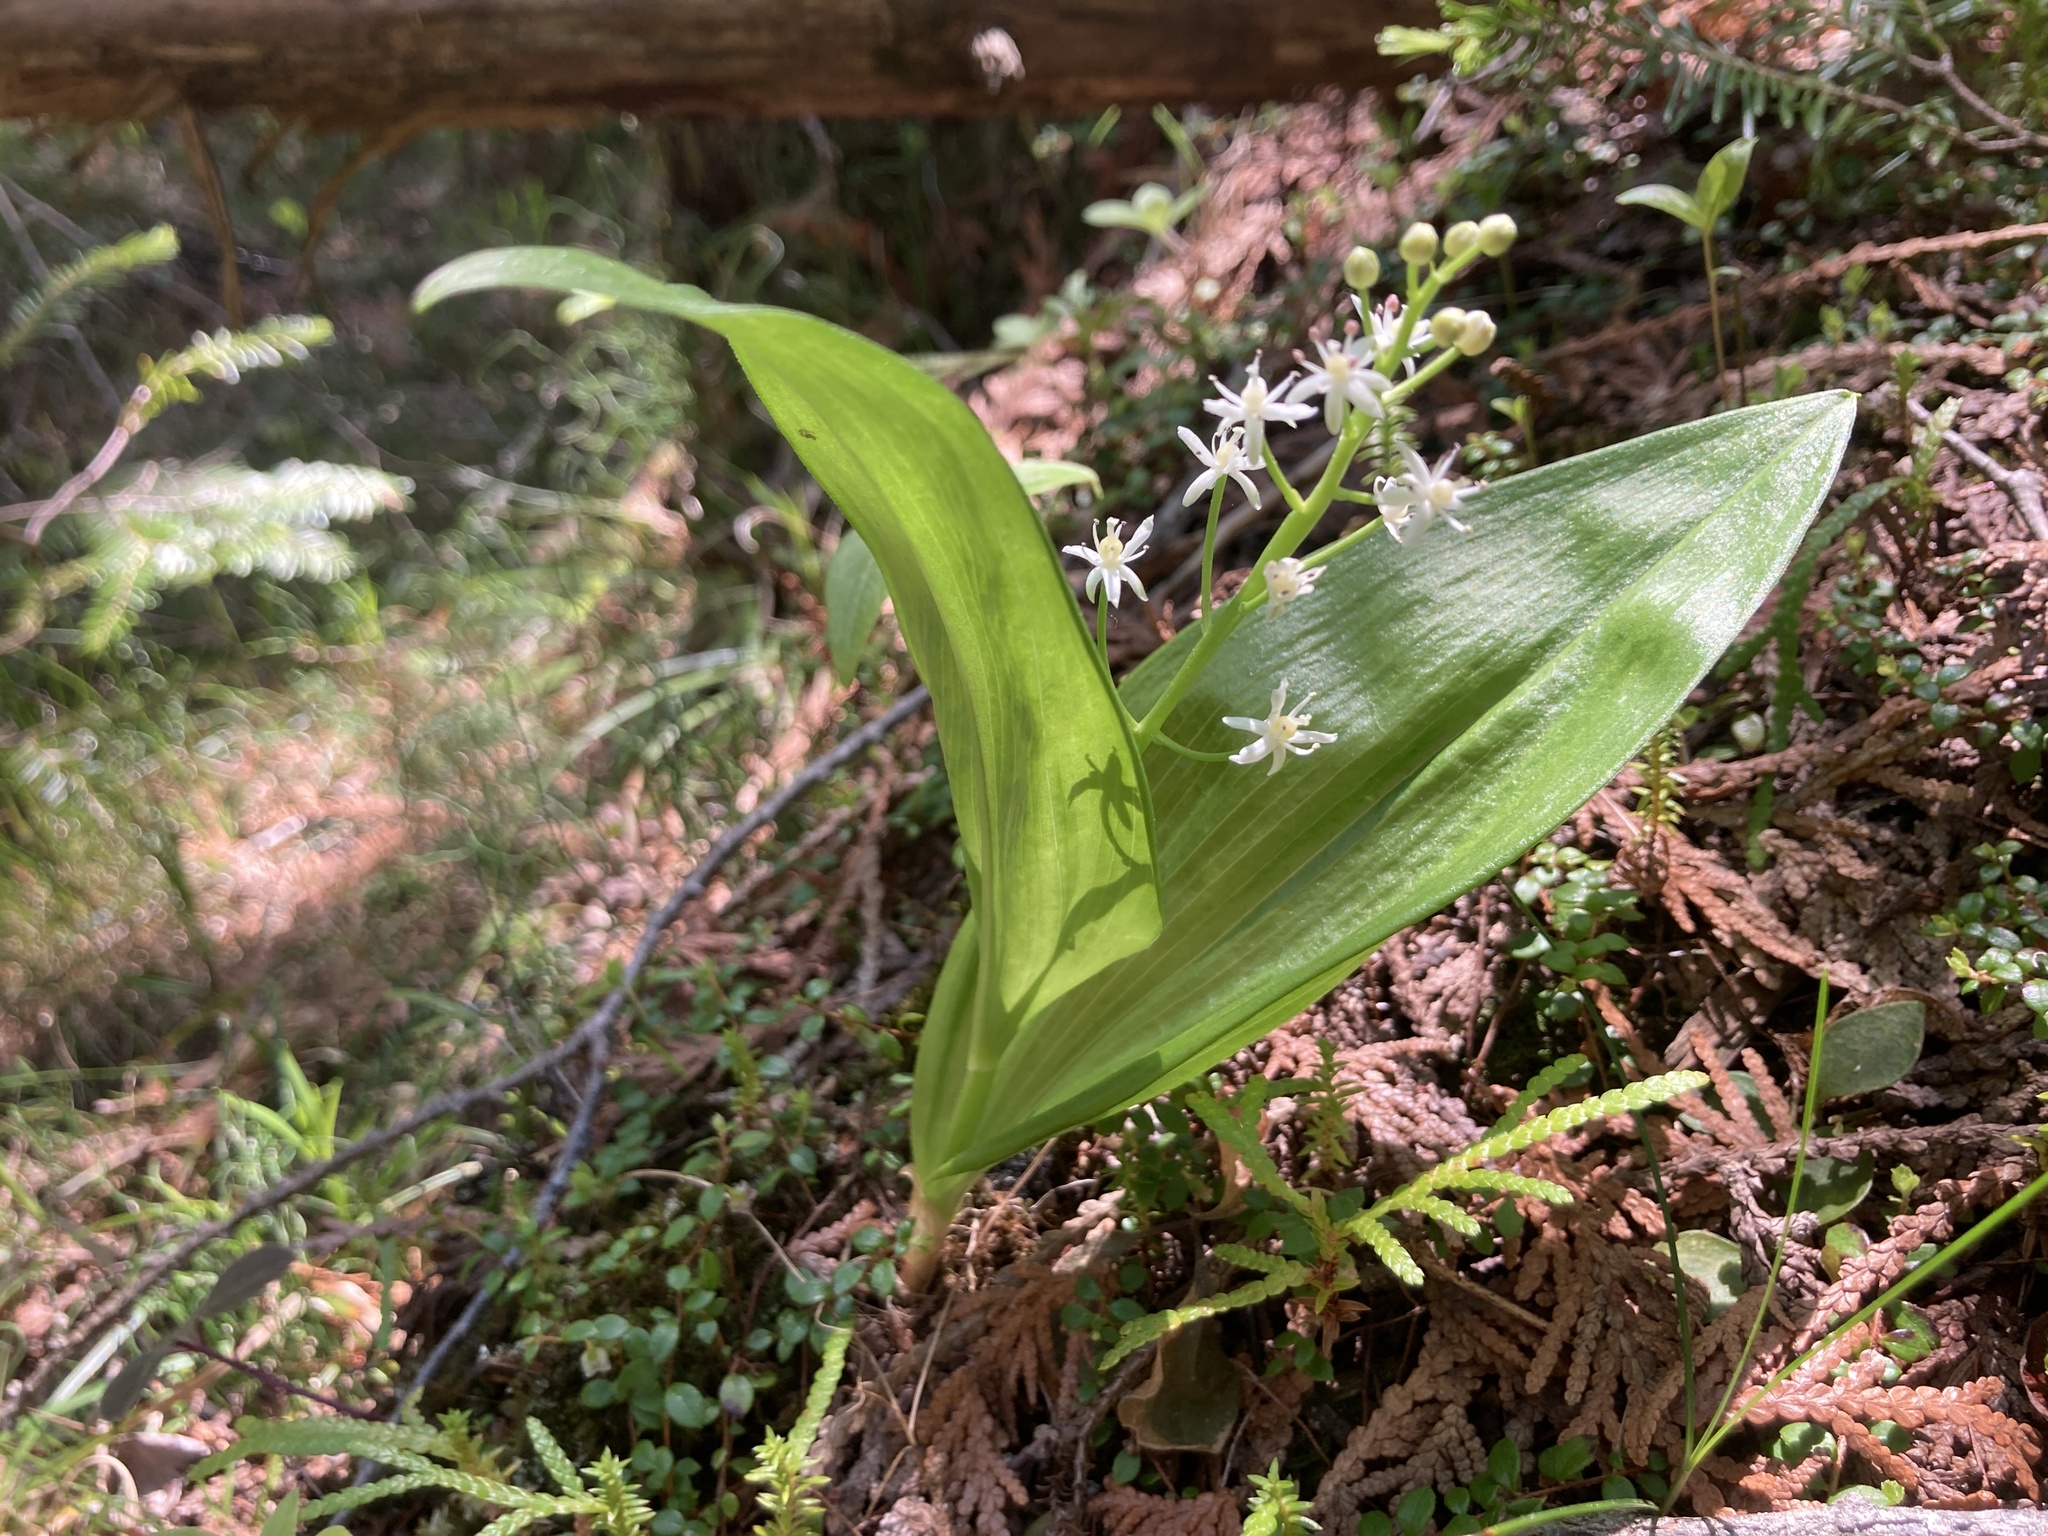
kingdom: Plantae
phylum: Tracheophyta
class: Liliopsida
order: Asparagales
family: Asparagaceae
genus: Maianthemum
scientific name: Maianthemum trifolium
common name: Swamp false solomon's seal
